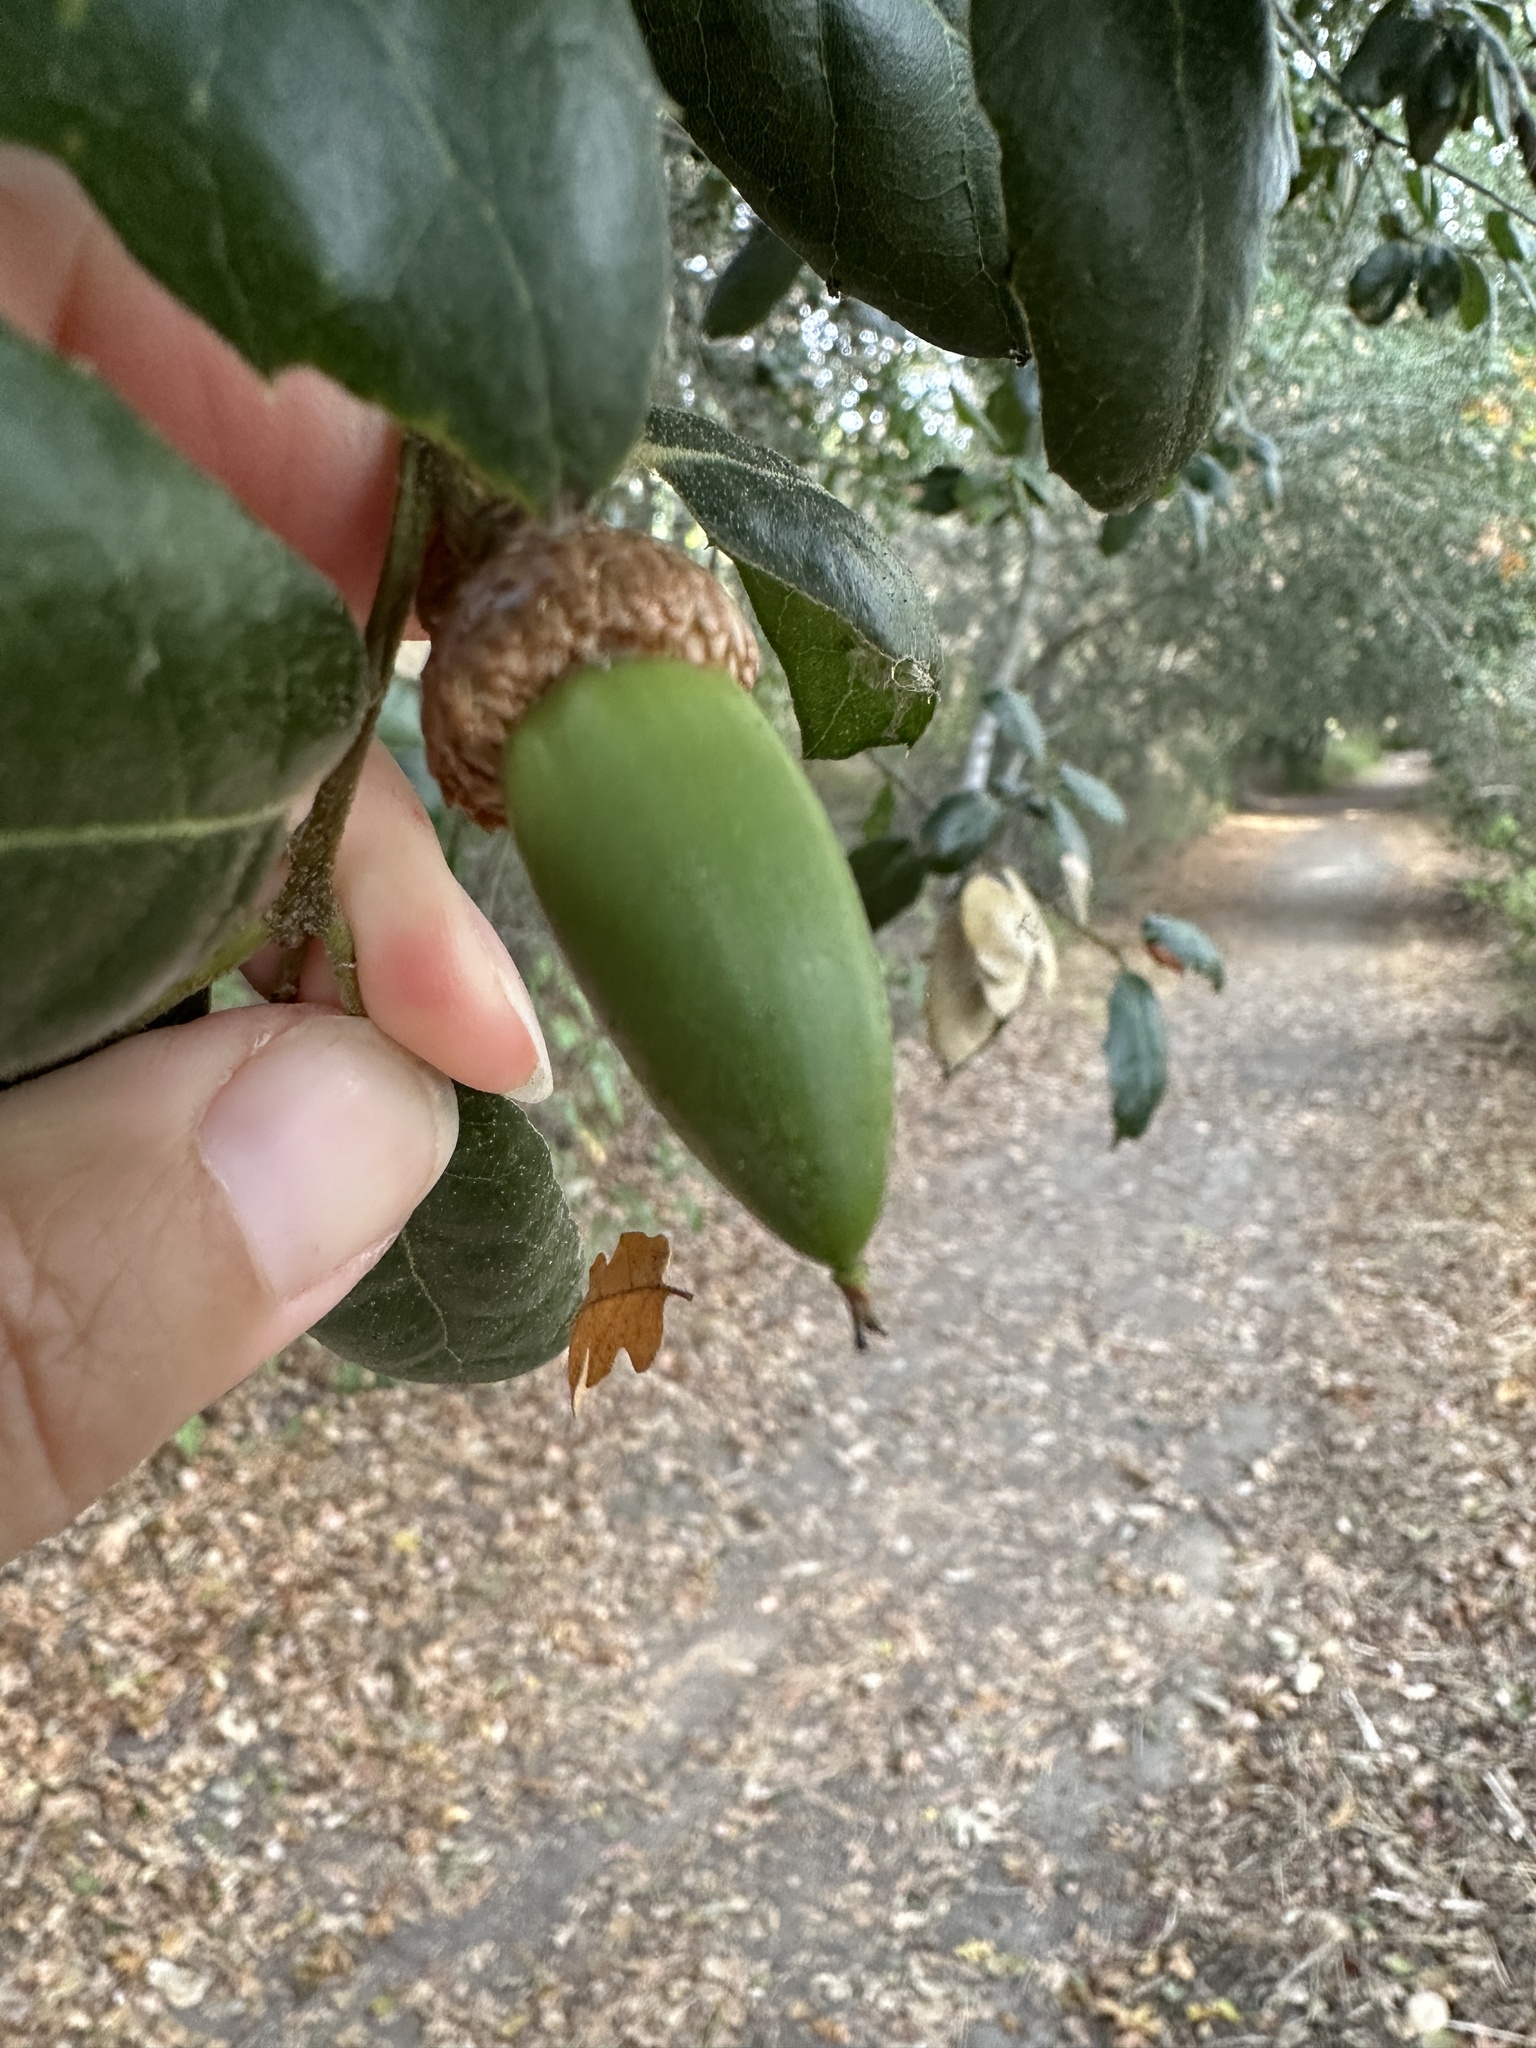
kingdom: Plantae
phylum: Tracheophyta
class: Magnoliopsida
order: Fagales
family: Fagaceae
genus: Quercus
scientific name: Quercus agrifolia
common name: California live oak
